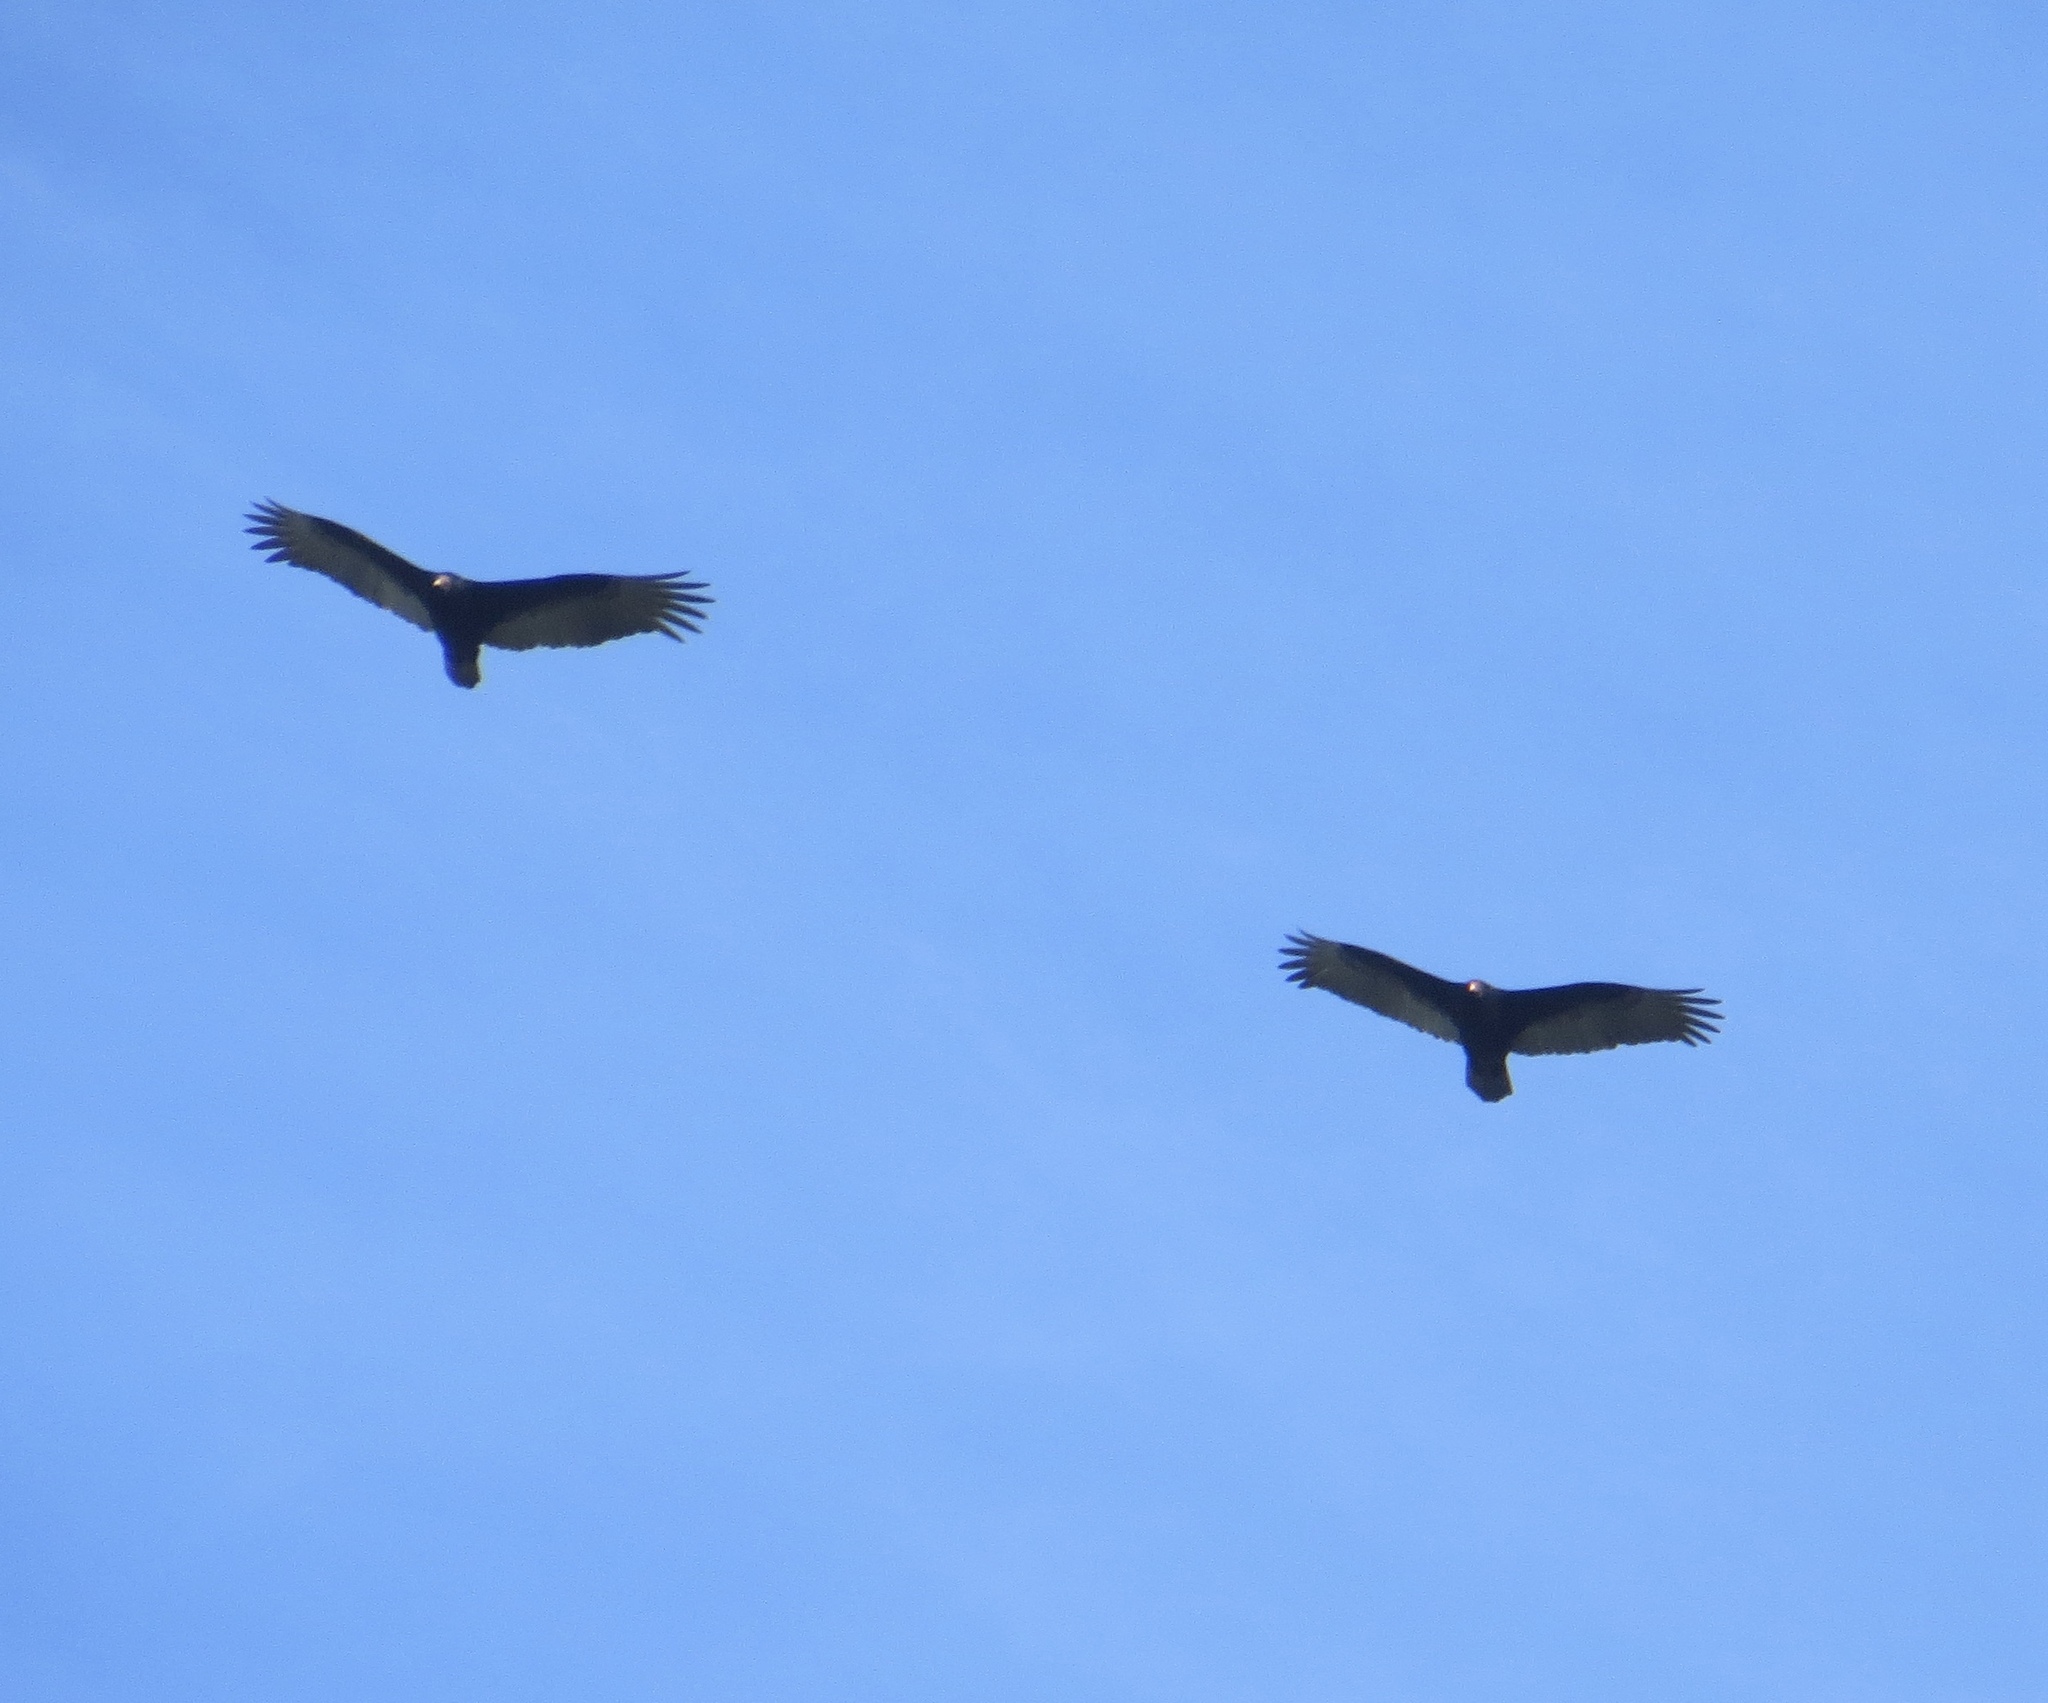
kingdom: Animalia
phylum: Chordata
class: Aves
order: Accipitriformes
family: Cathartidae
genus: Cathartes
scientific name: Cathartes aura
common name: Turkey vulture
